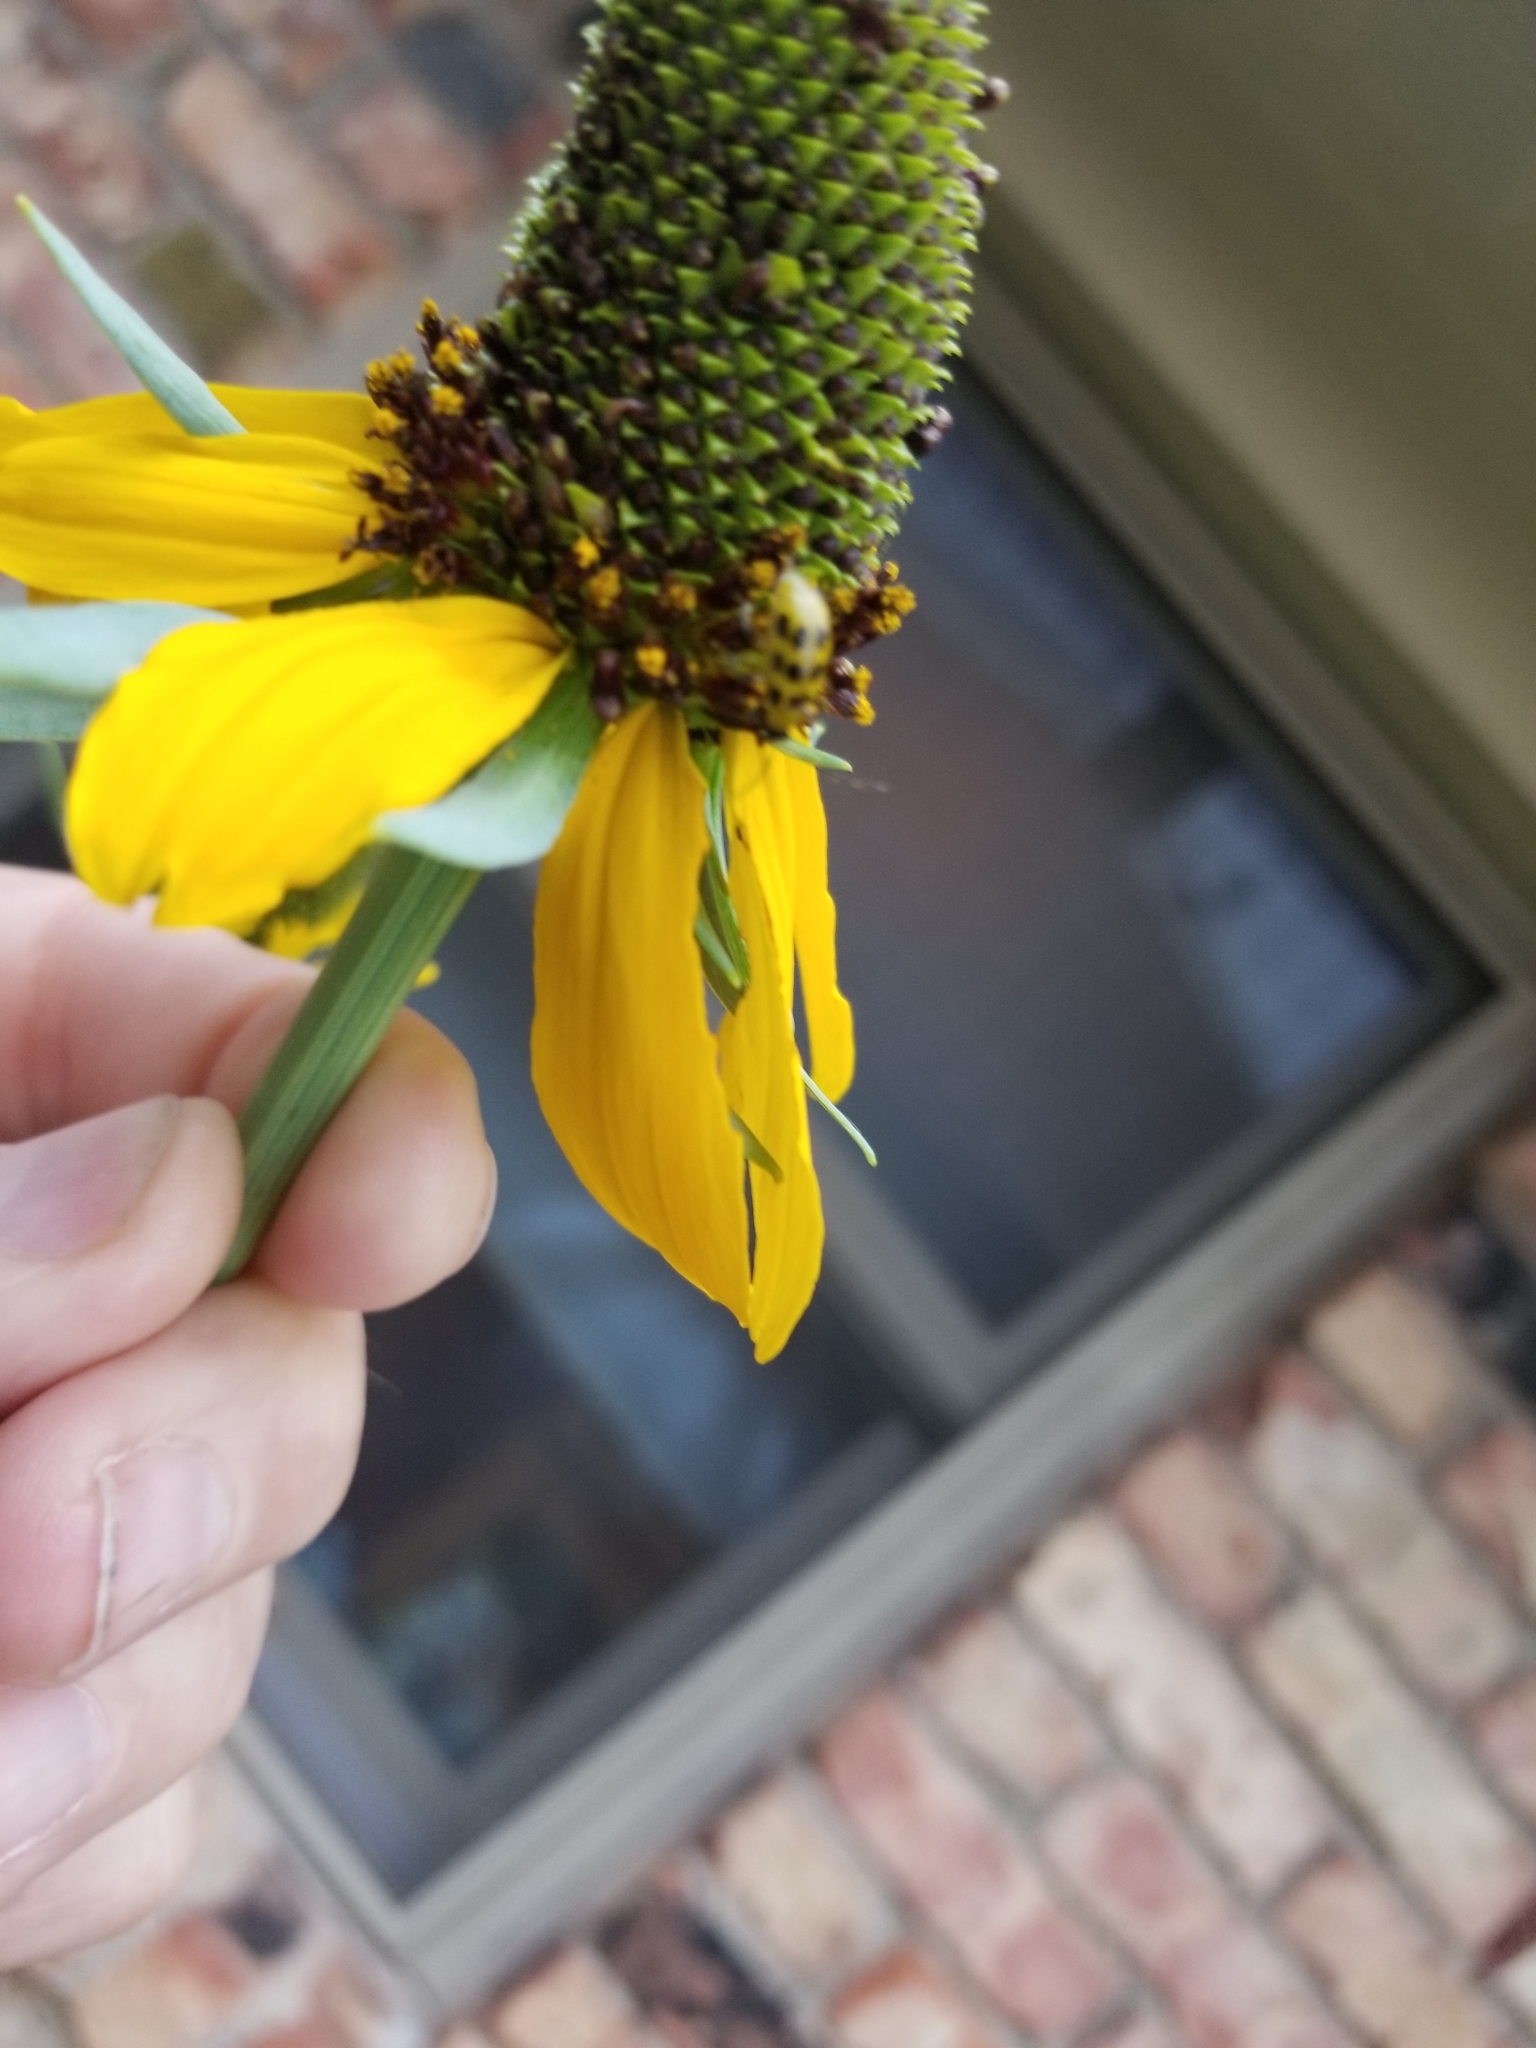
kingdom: Animalia
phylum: Arthropoda
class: Insecta
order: Coleoptera
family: Chrysomelidae
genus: Diabrotica
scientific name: Diabrotica undecimpunctata
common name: Spotted cucumber beetle
